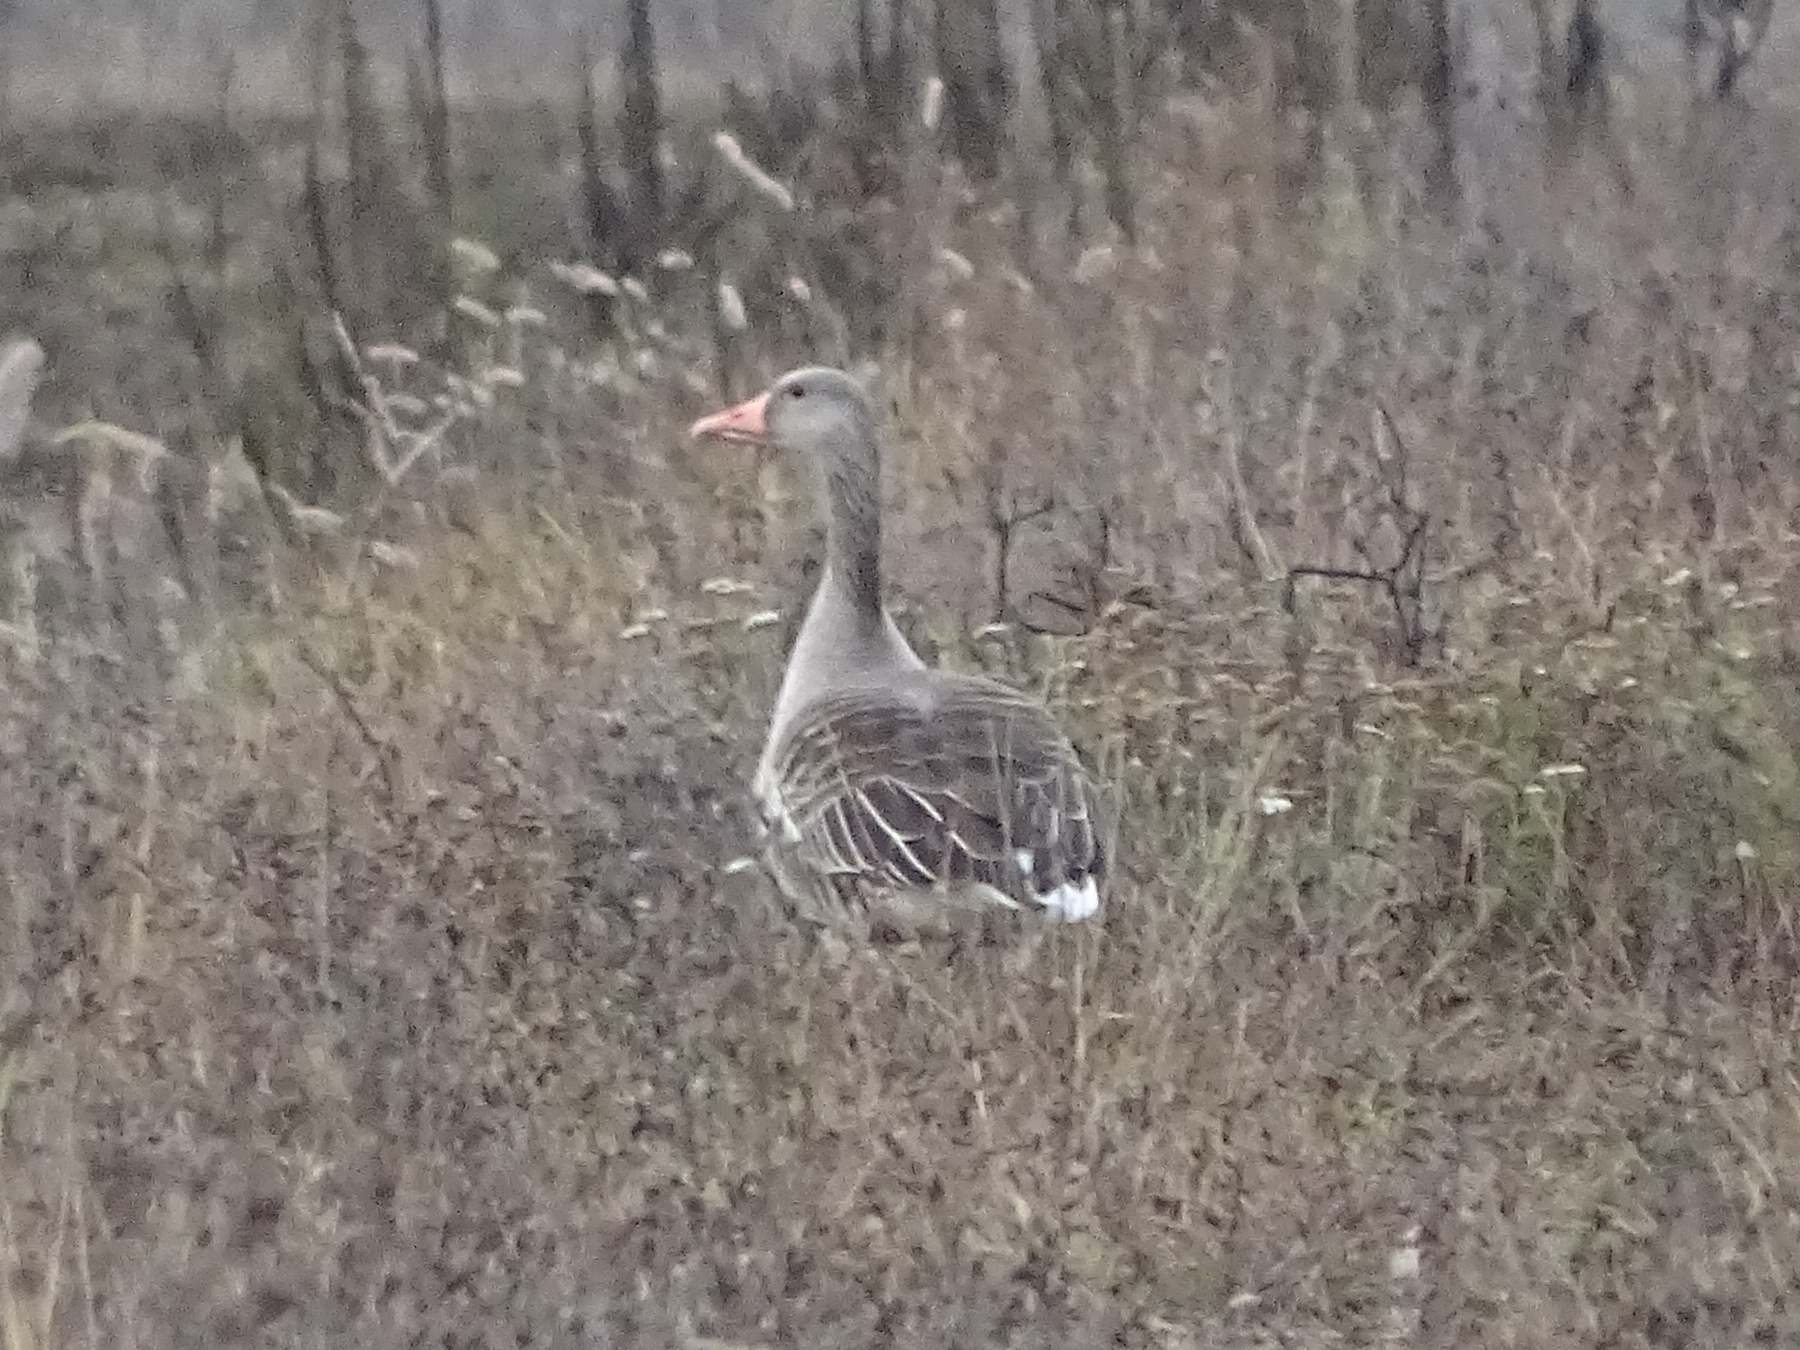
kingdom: Animalia
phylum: Chordata
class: Aves
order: Anseriformes
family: Anatidae
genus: Anser
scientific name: Anser anser
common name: Greylag goose
